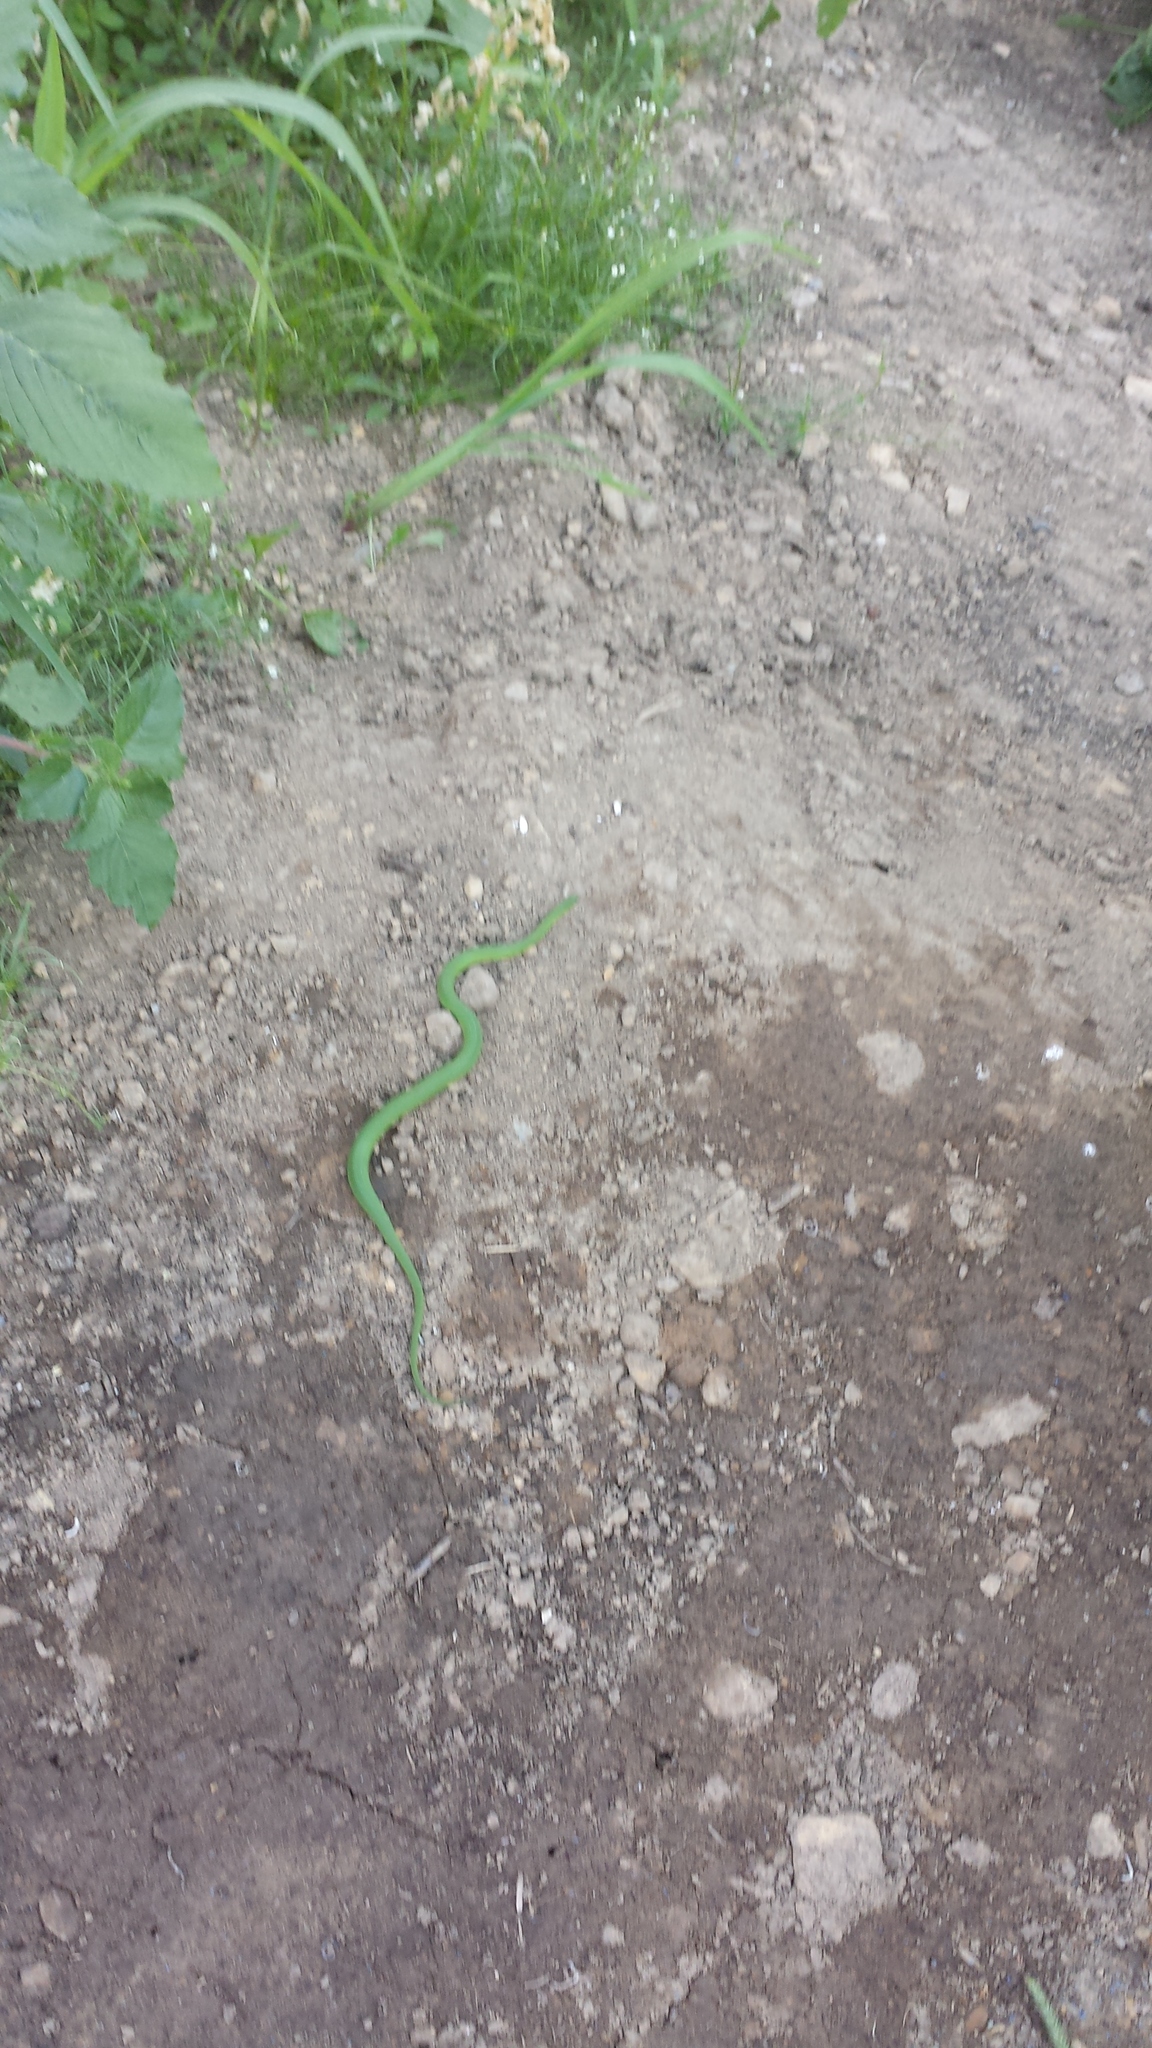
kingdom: Animalia
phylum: Chordata
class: Squamata
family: Colubridae
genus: Opheodrys
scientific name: Opheodrys vernalis
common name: Smooth green snake
